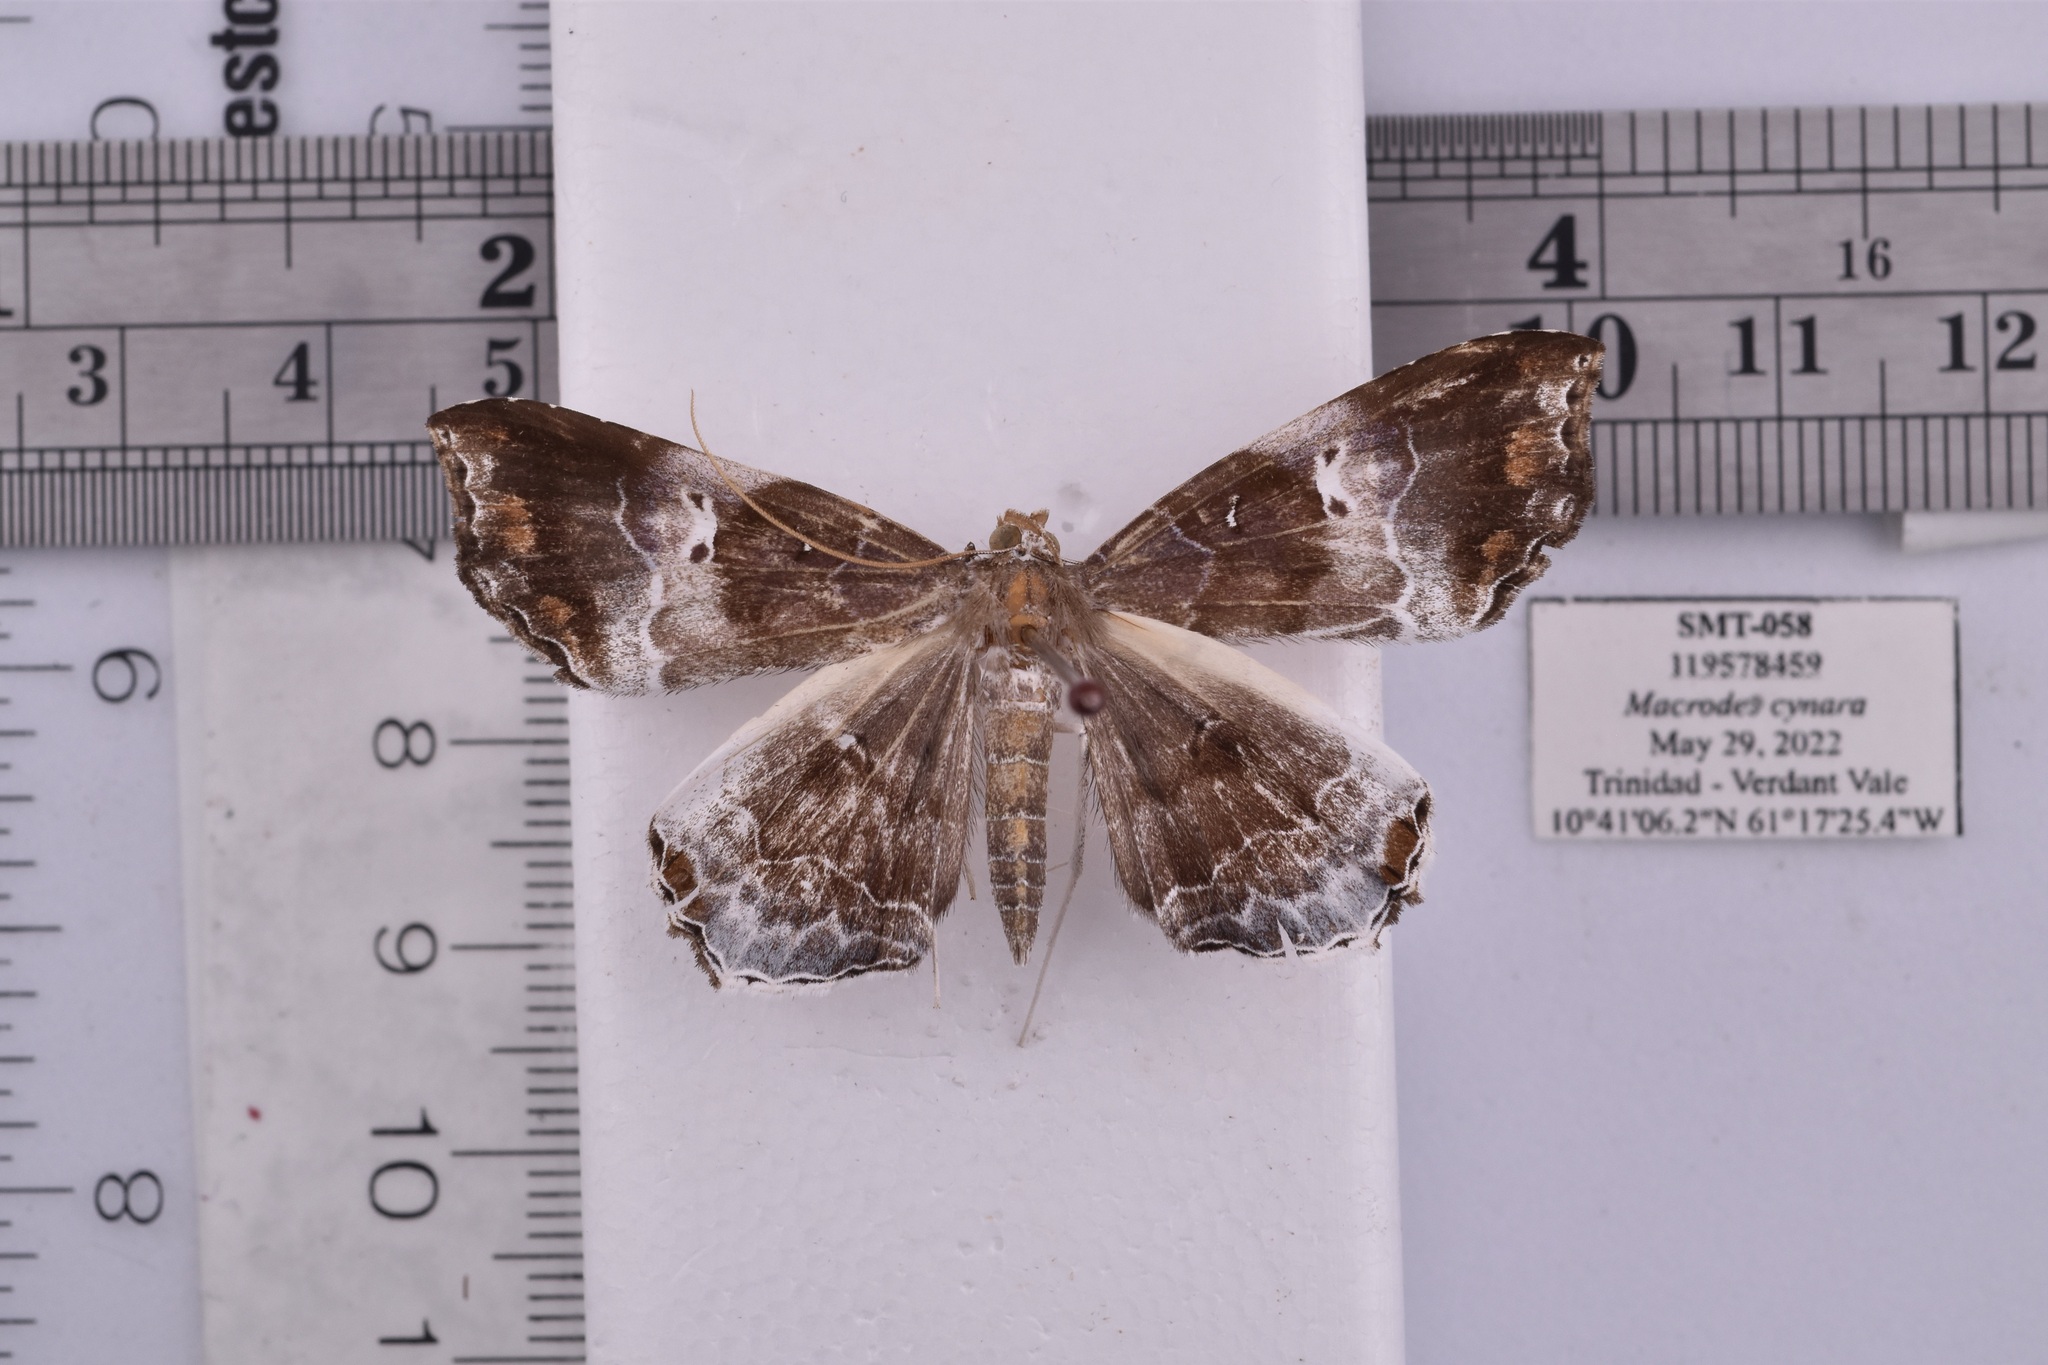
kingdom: Animalia
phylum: Arthropoda
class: Insecta
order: Lepidoptera
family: Erebidae
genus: Macrodes
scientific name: Macrodes cynara
